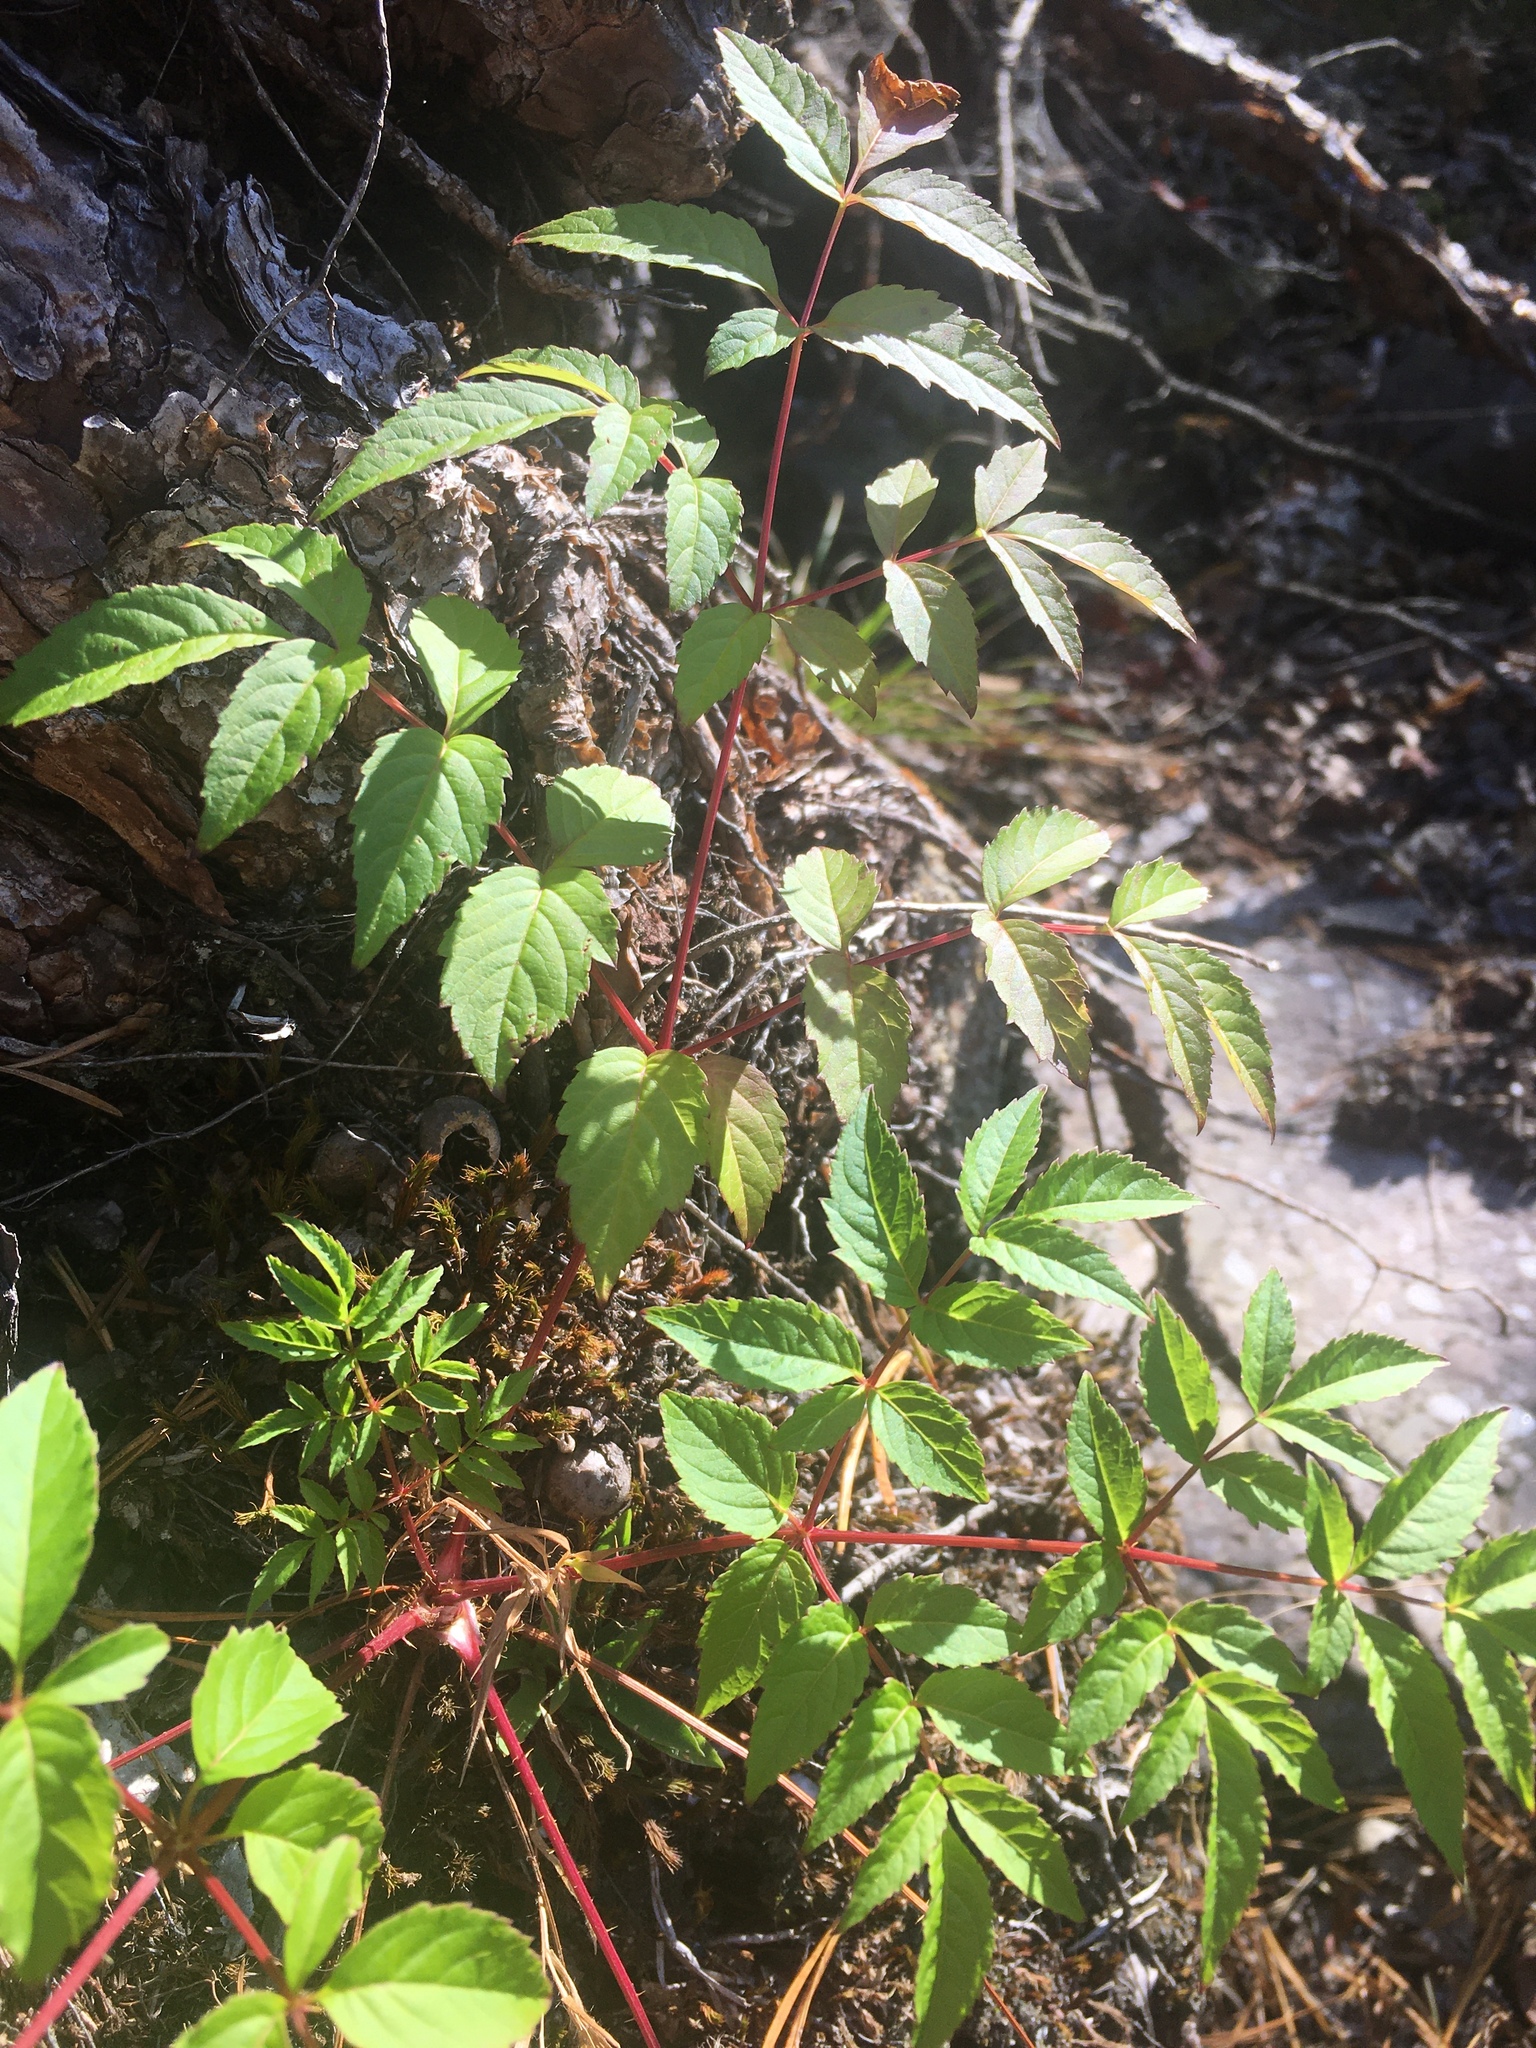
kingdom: Plantae
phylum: Tracheophyta
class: Magnoliopsida
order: Apiales
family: Araliaceae
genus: Aralia
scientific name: Aralia hispida
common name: Bristly sarsaparilla
